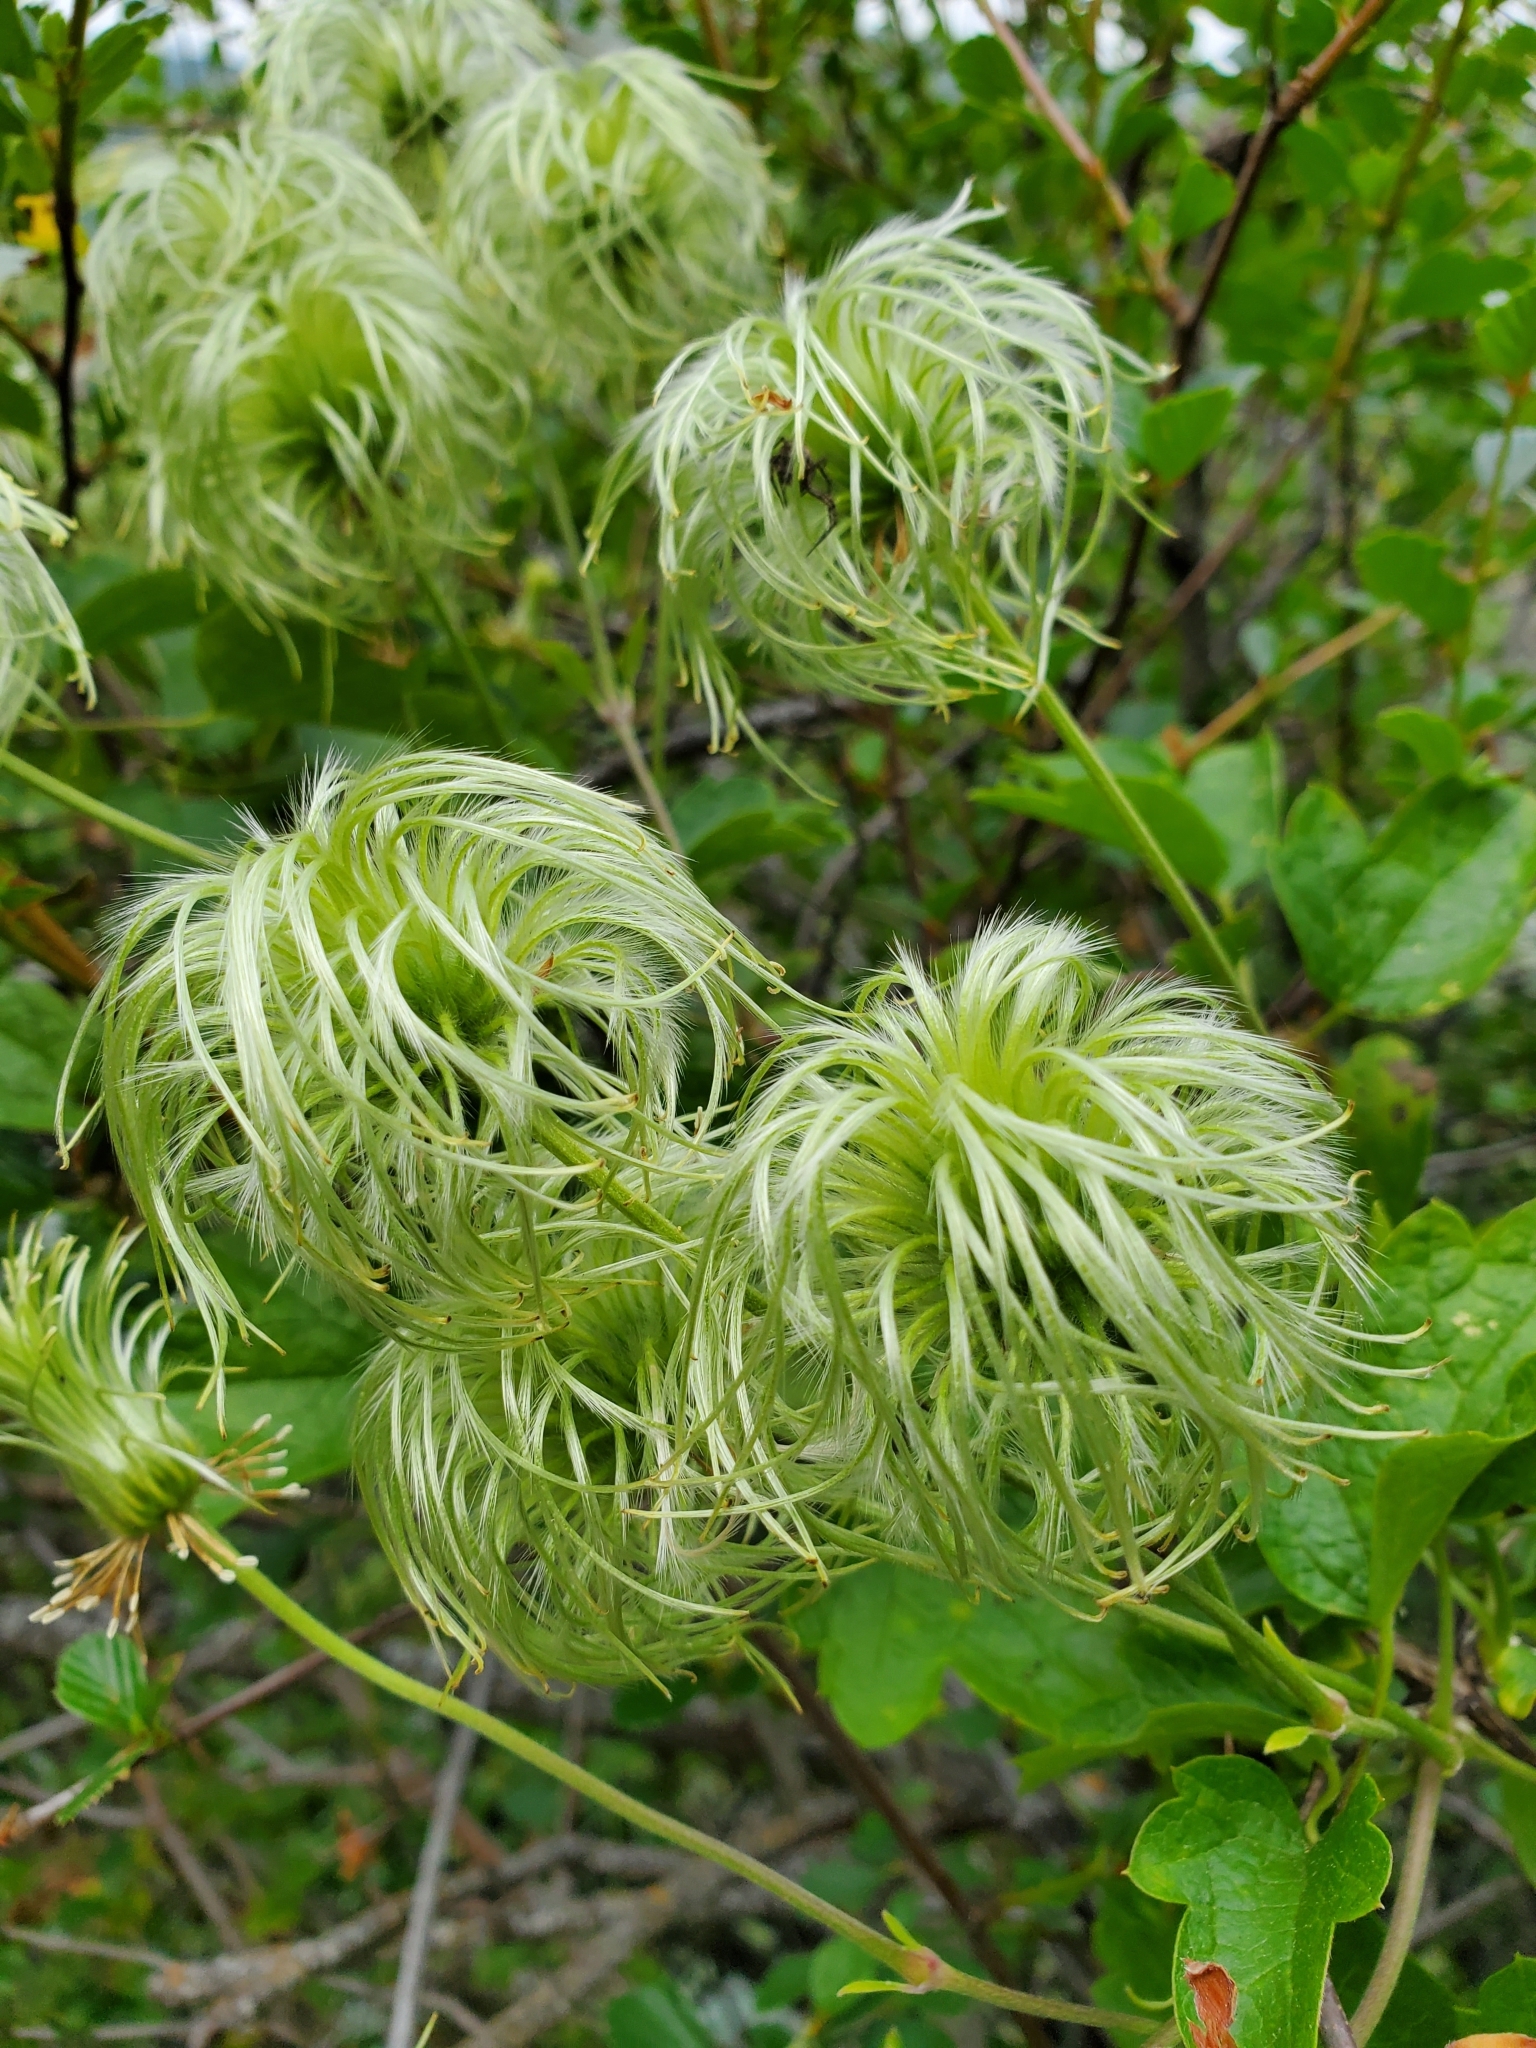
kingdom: Plantae
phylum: Tracheophyta
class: Magnoliopsida
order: Ranunculales
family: Ranunculaceae
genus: Clematis
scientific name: Clematis lasiantha
